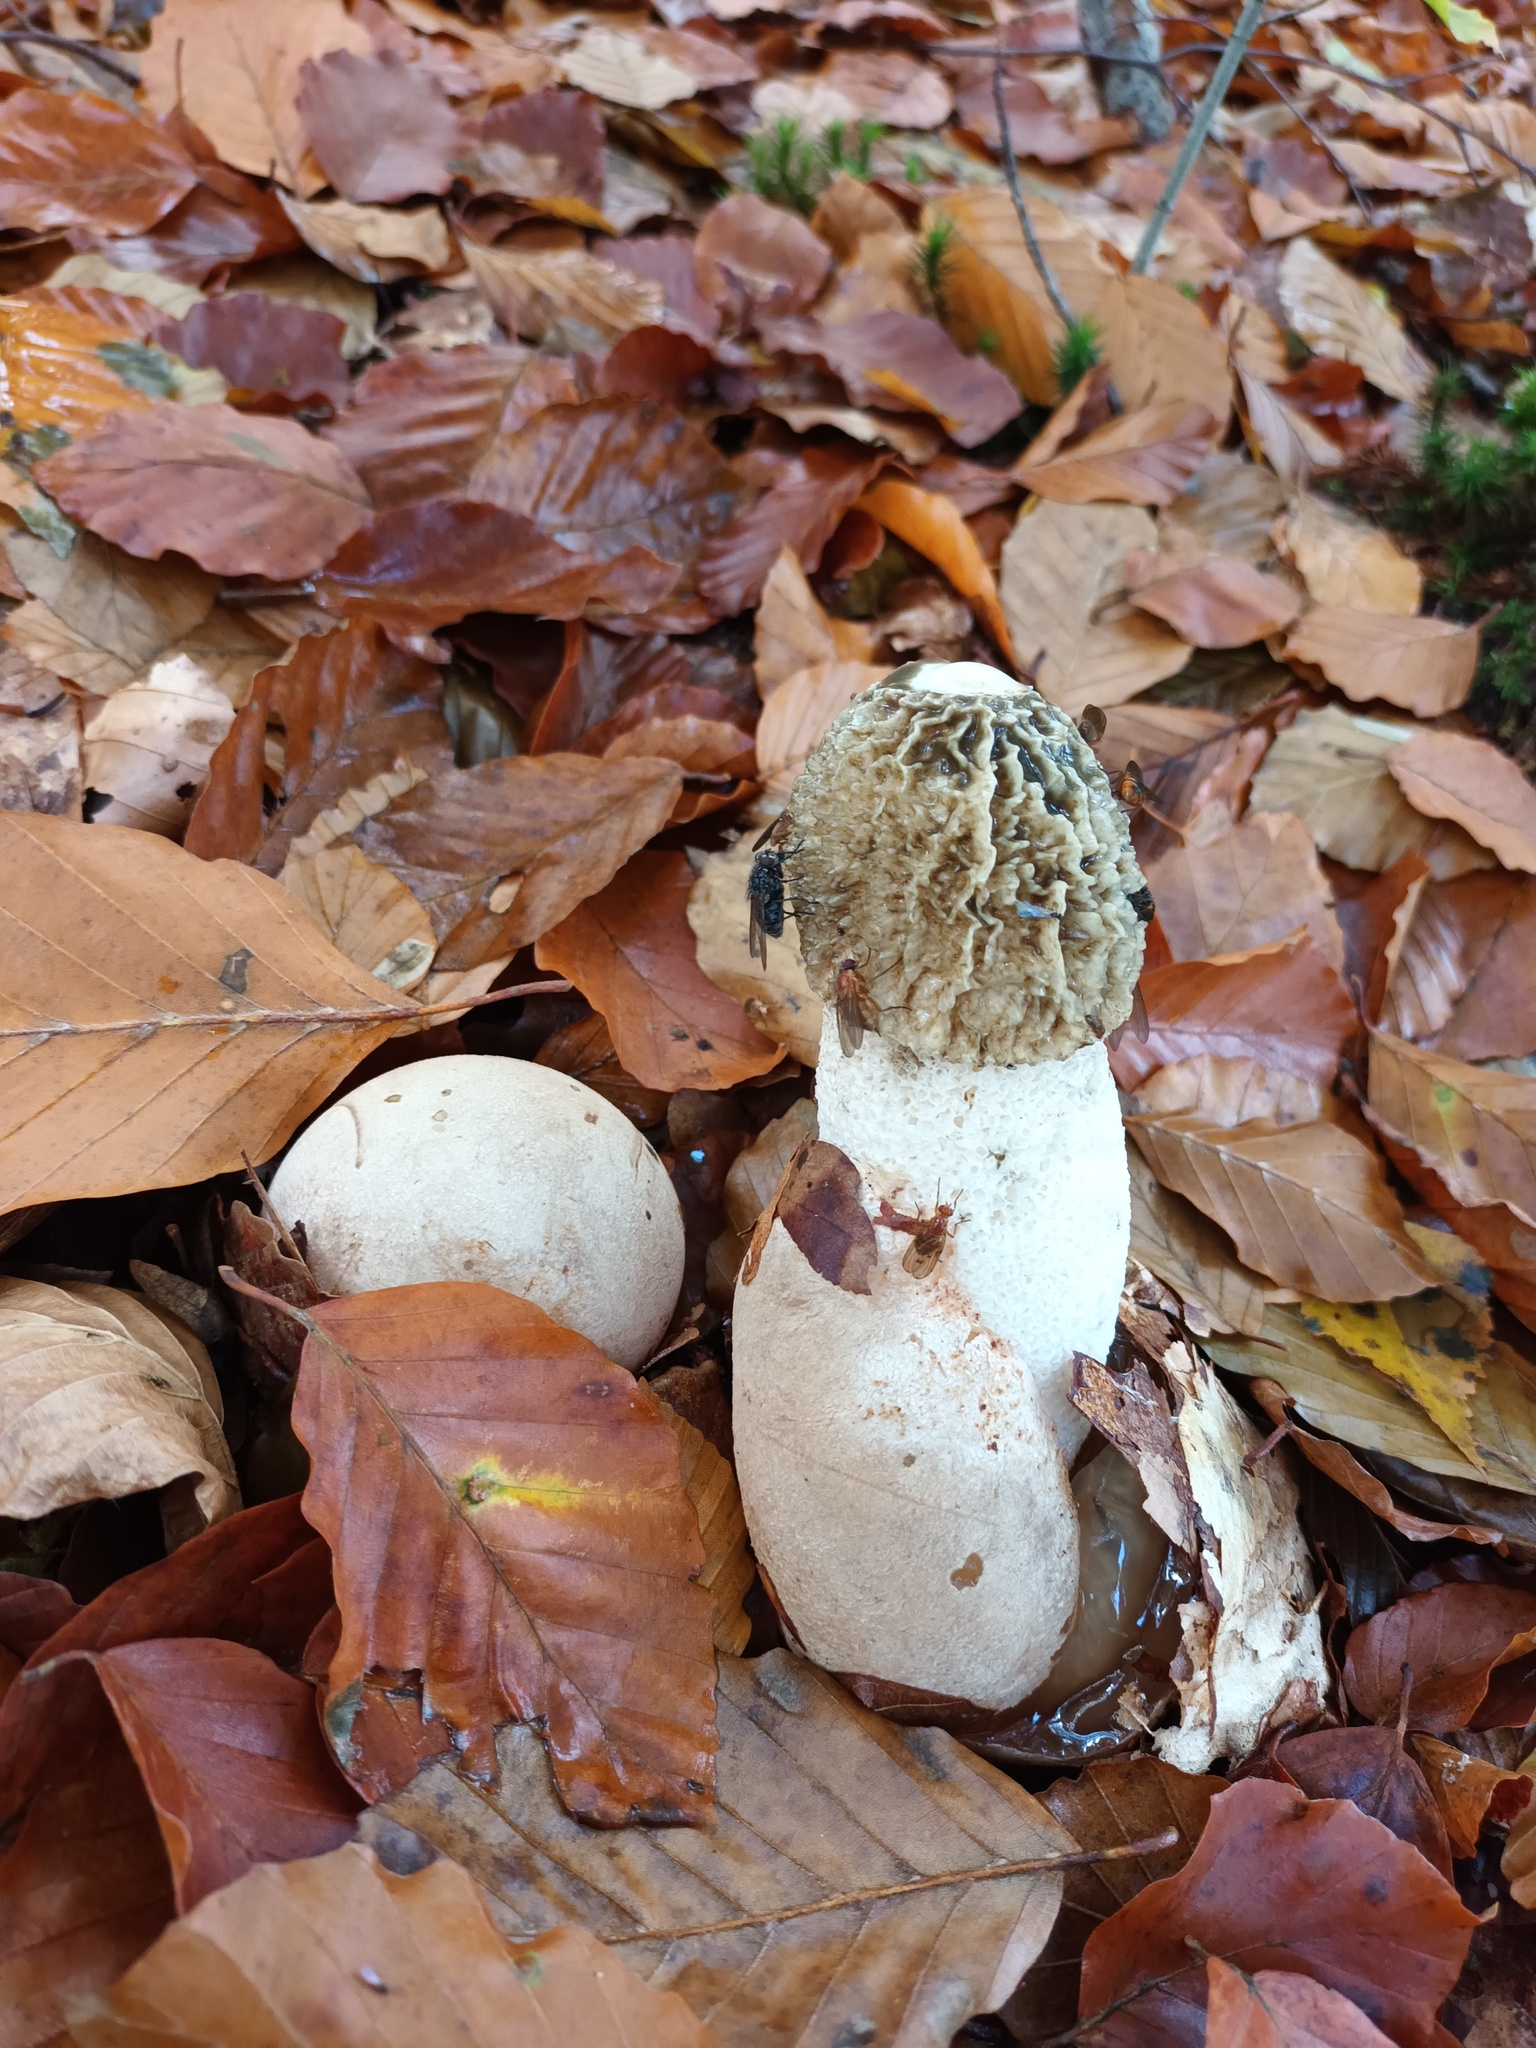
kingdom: Fungi
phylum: Basidiomycota
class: Agaricomycetes
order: Phallales
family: Phallaceae
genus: Phallus
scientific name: Phallus impudicus
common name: Common stinkhorn
